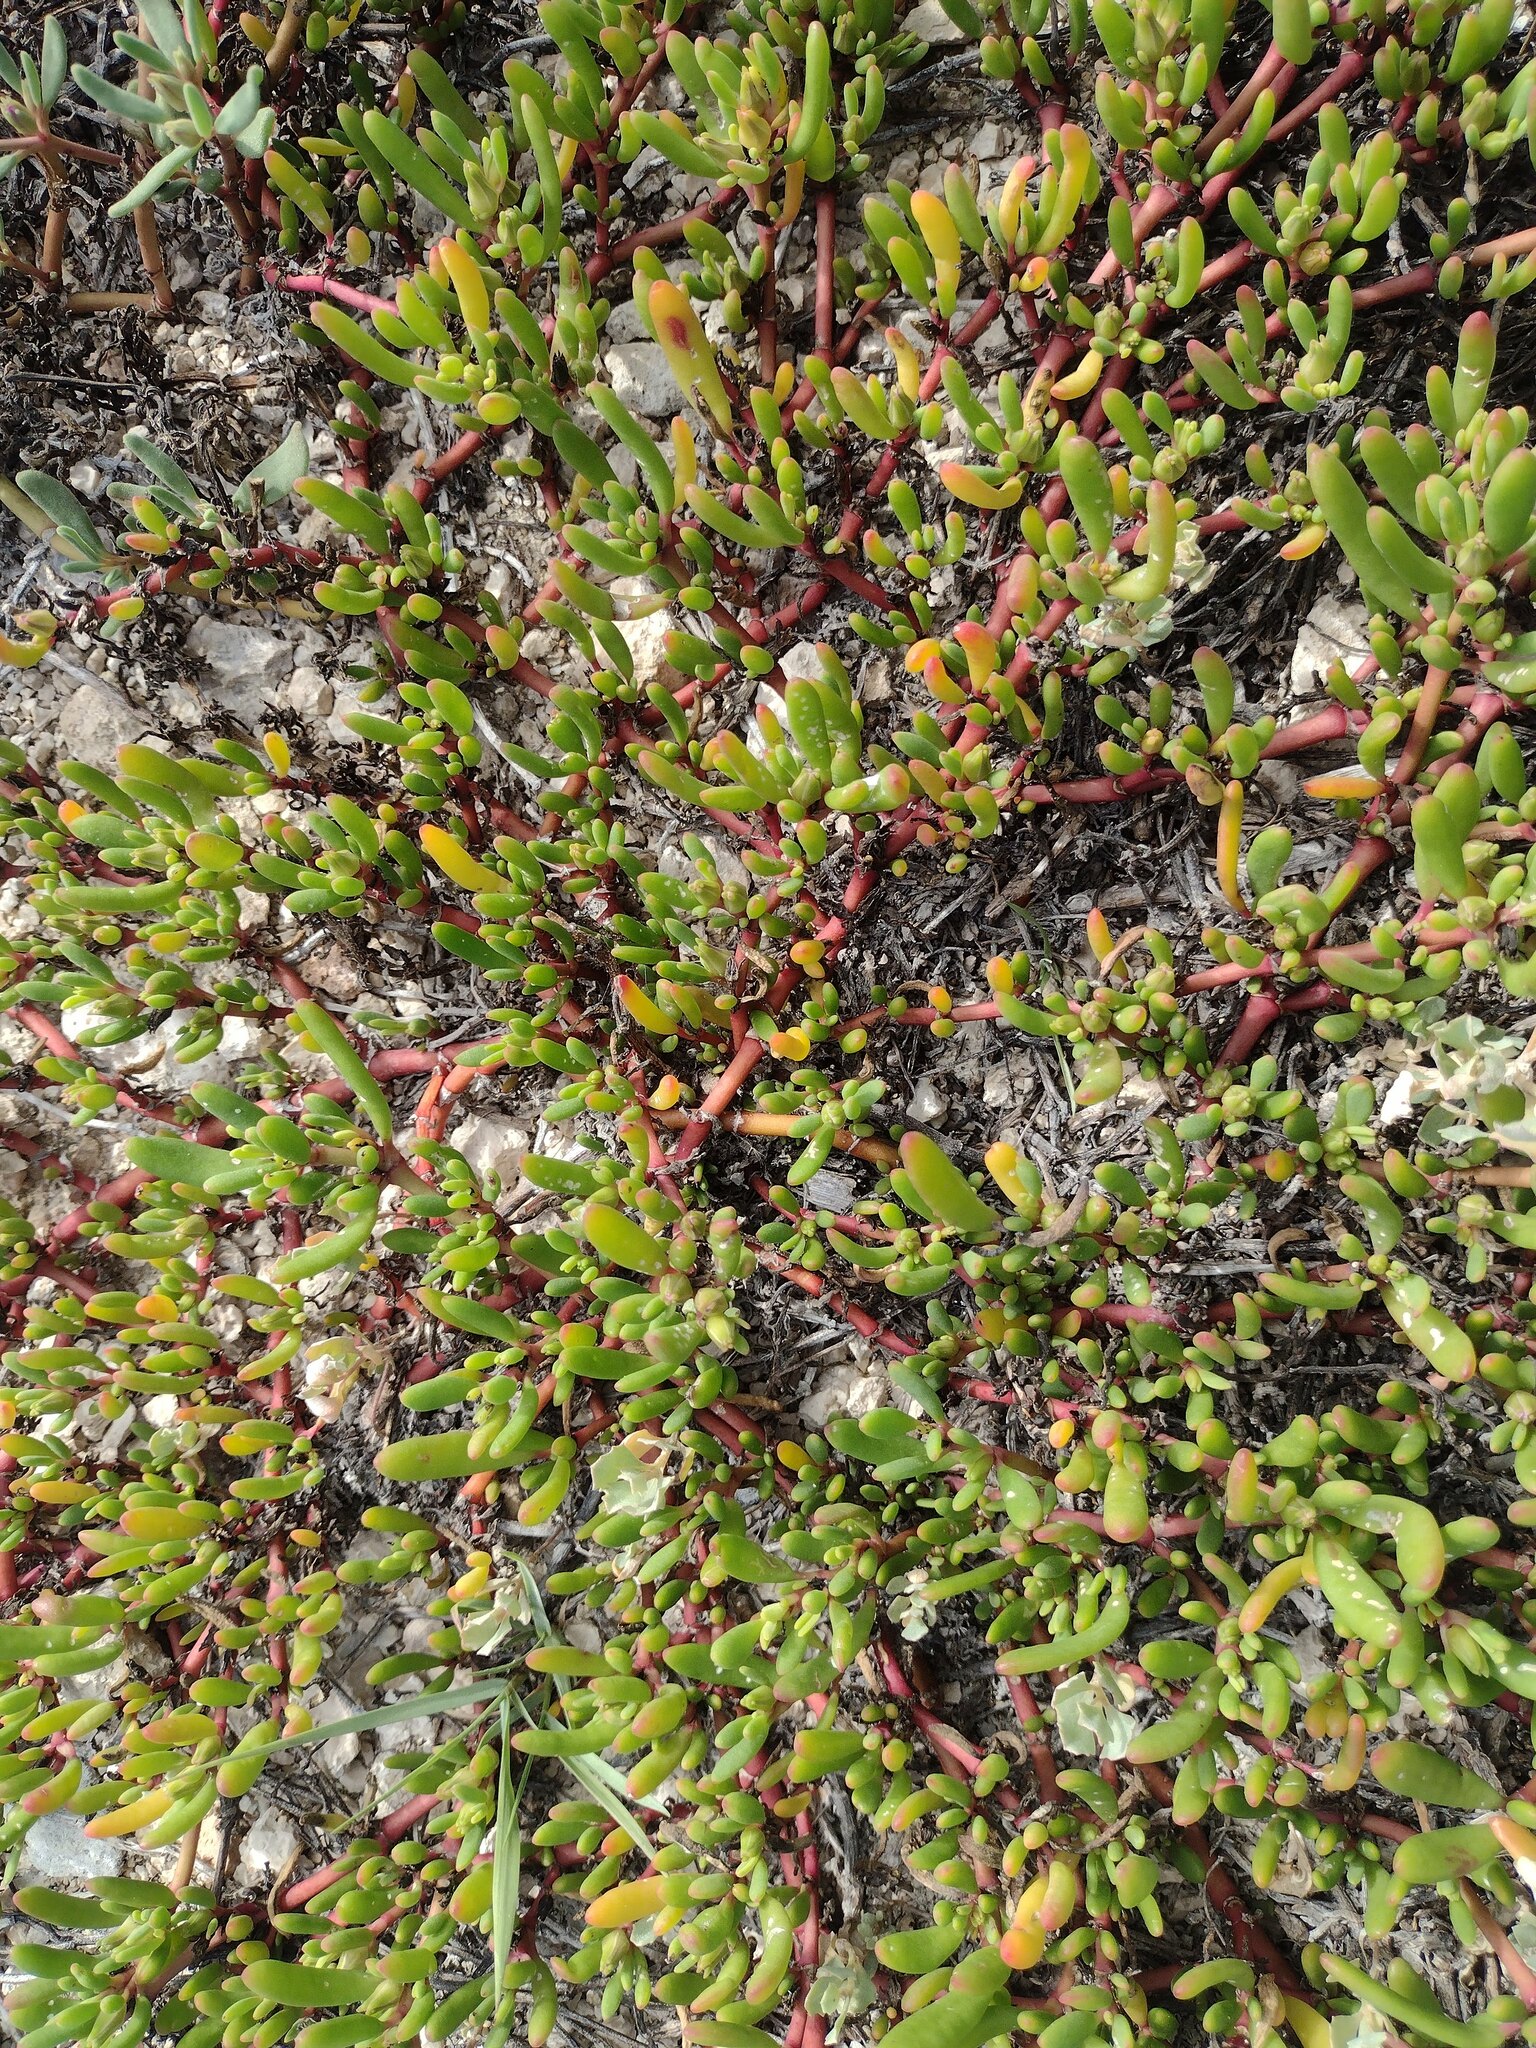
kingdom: Plantae
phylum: Tracheophyta
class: Magnoliopsida
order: Caryophyllales
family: Aizoaceae
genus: Sesuvium
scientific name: Sesuvium portulacastrum
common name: Sea-purslane
